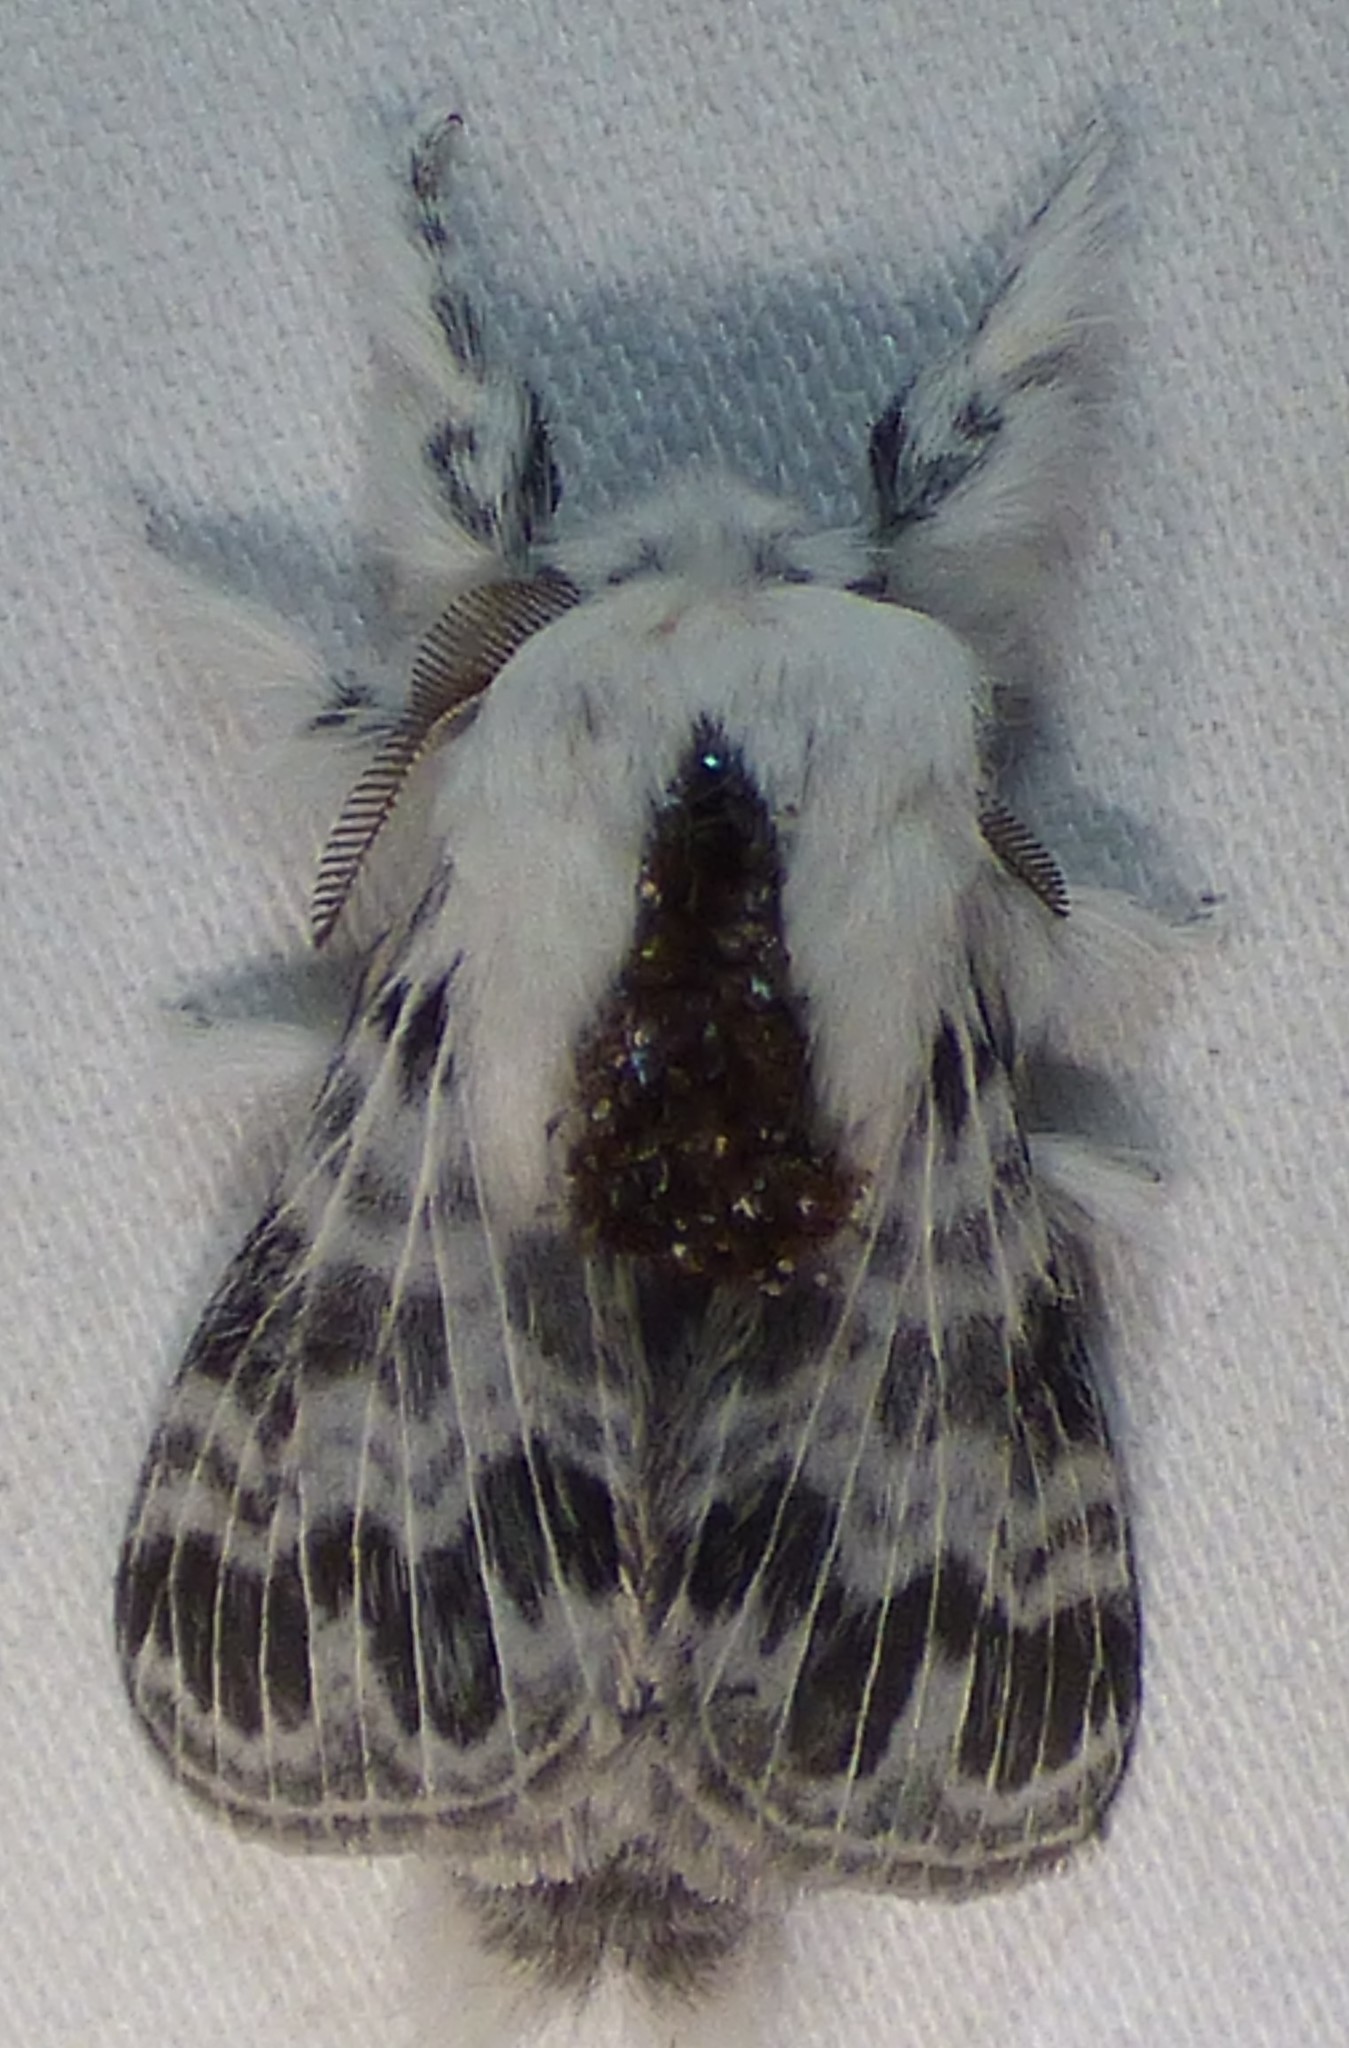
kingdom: Animalia
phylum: Arthropoda
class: Insecta
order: Lepidoptera
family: Lasiocampidae
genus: Tolype
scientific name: Tolype velleda
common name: Large tolype moth
